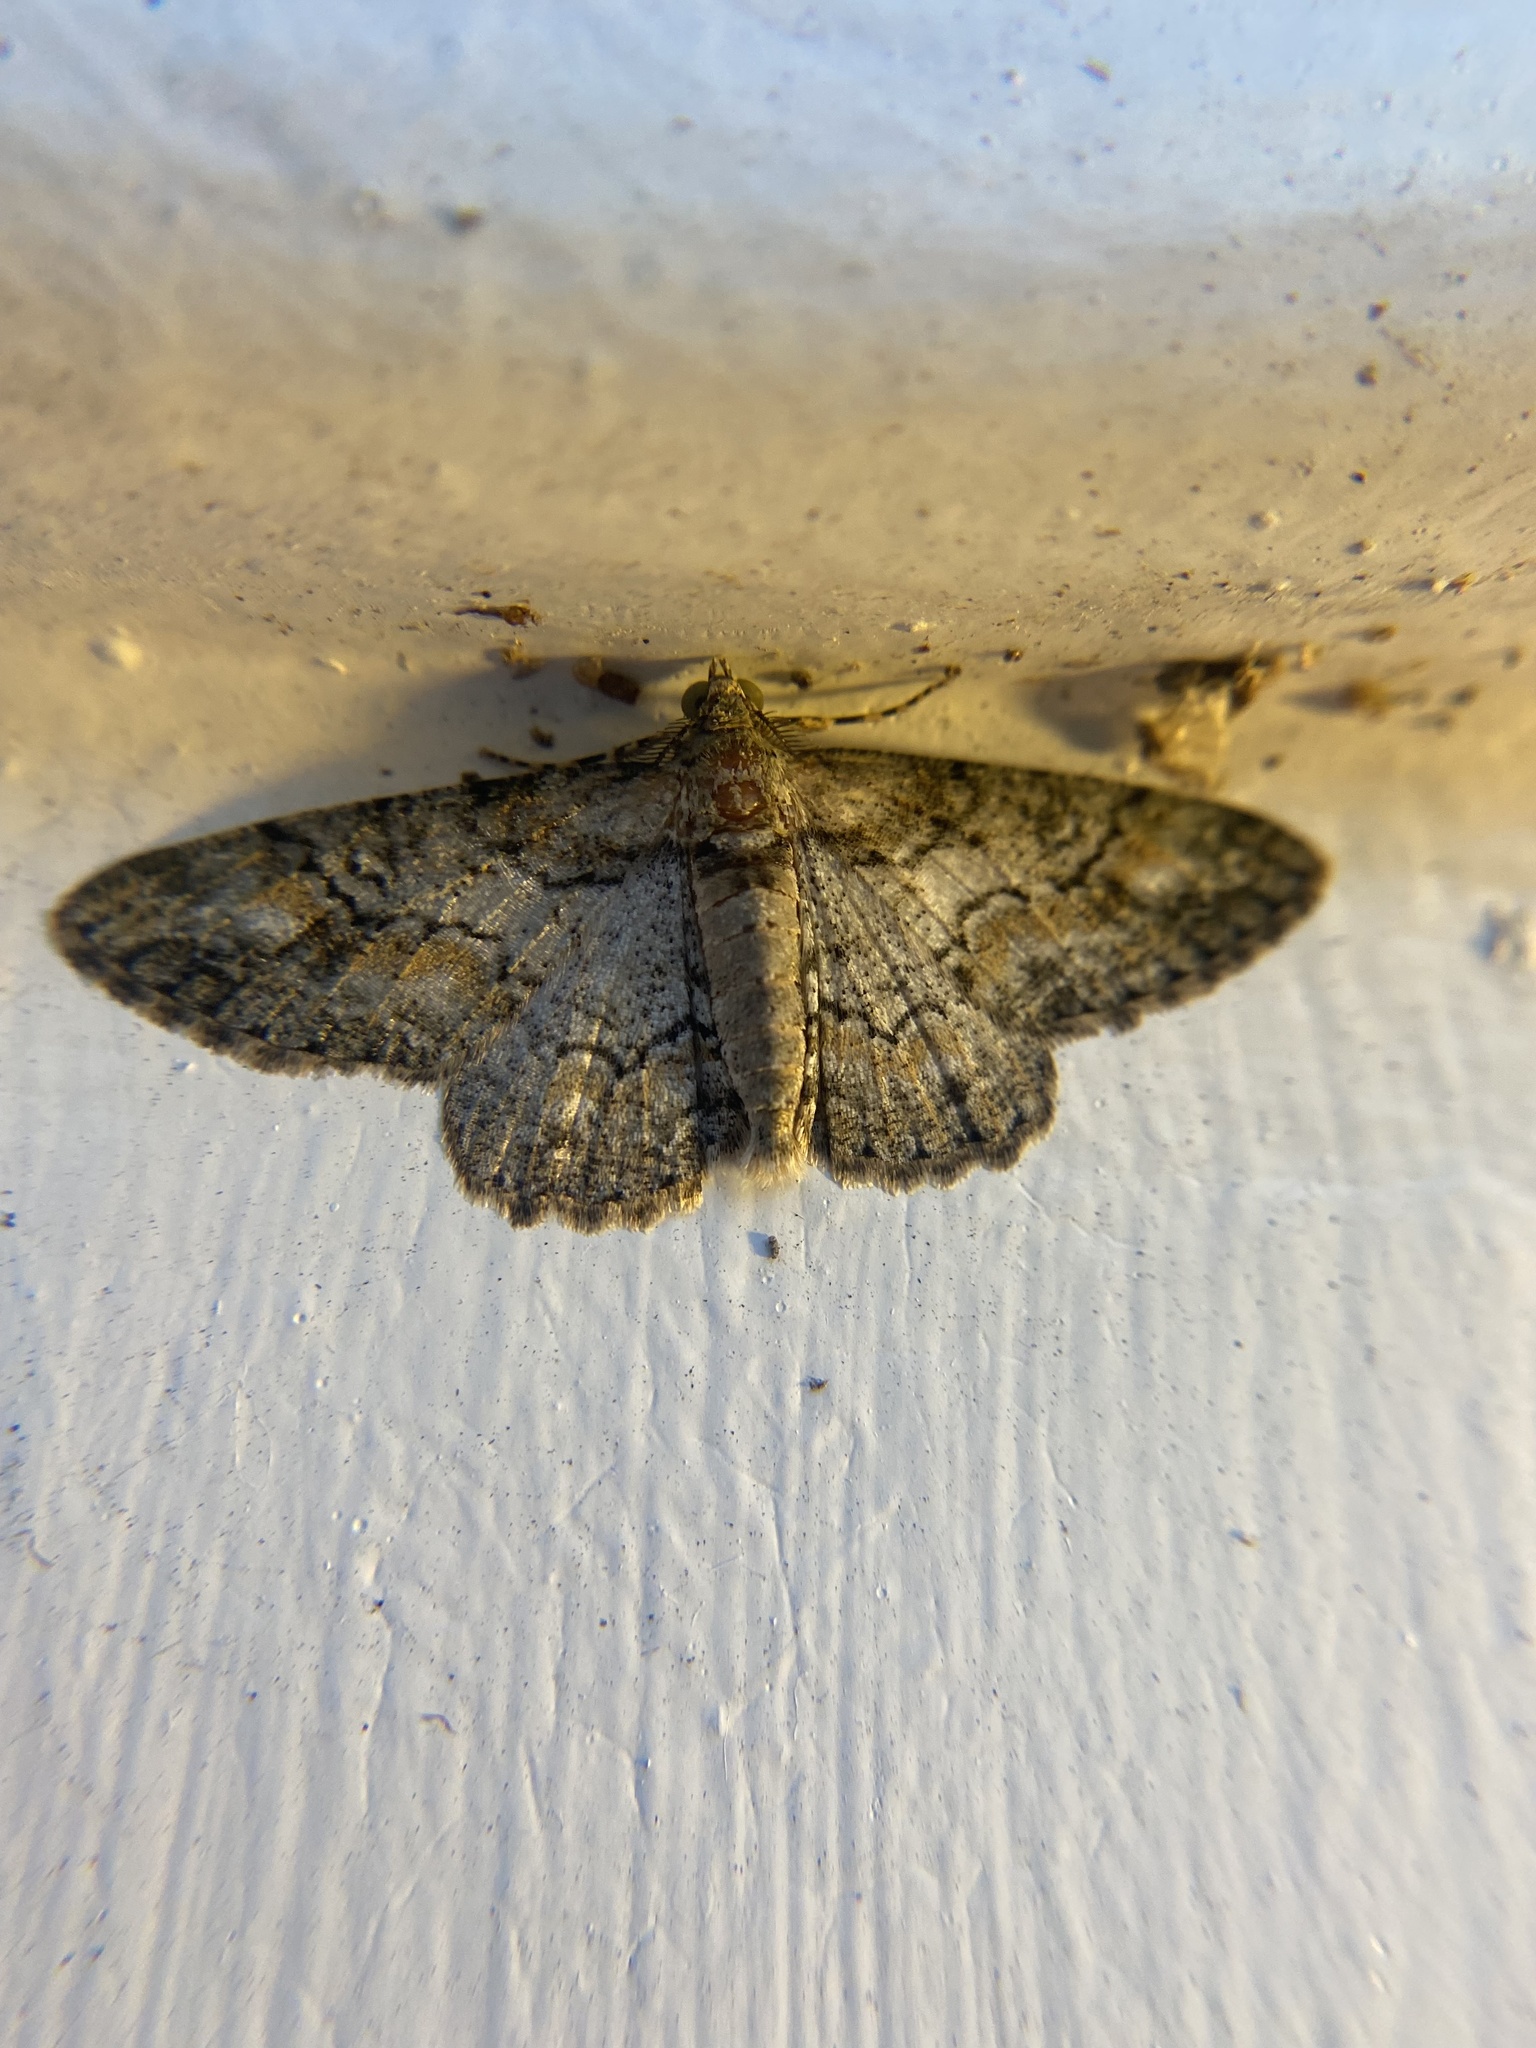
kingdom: Animalia
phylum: Arthropoda
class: Insecta
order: Lepidoptera
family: Geometridae
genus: Cleora
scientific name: Cleora sublunaria
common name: Double-lined gray
